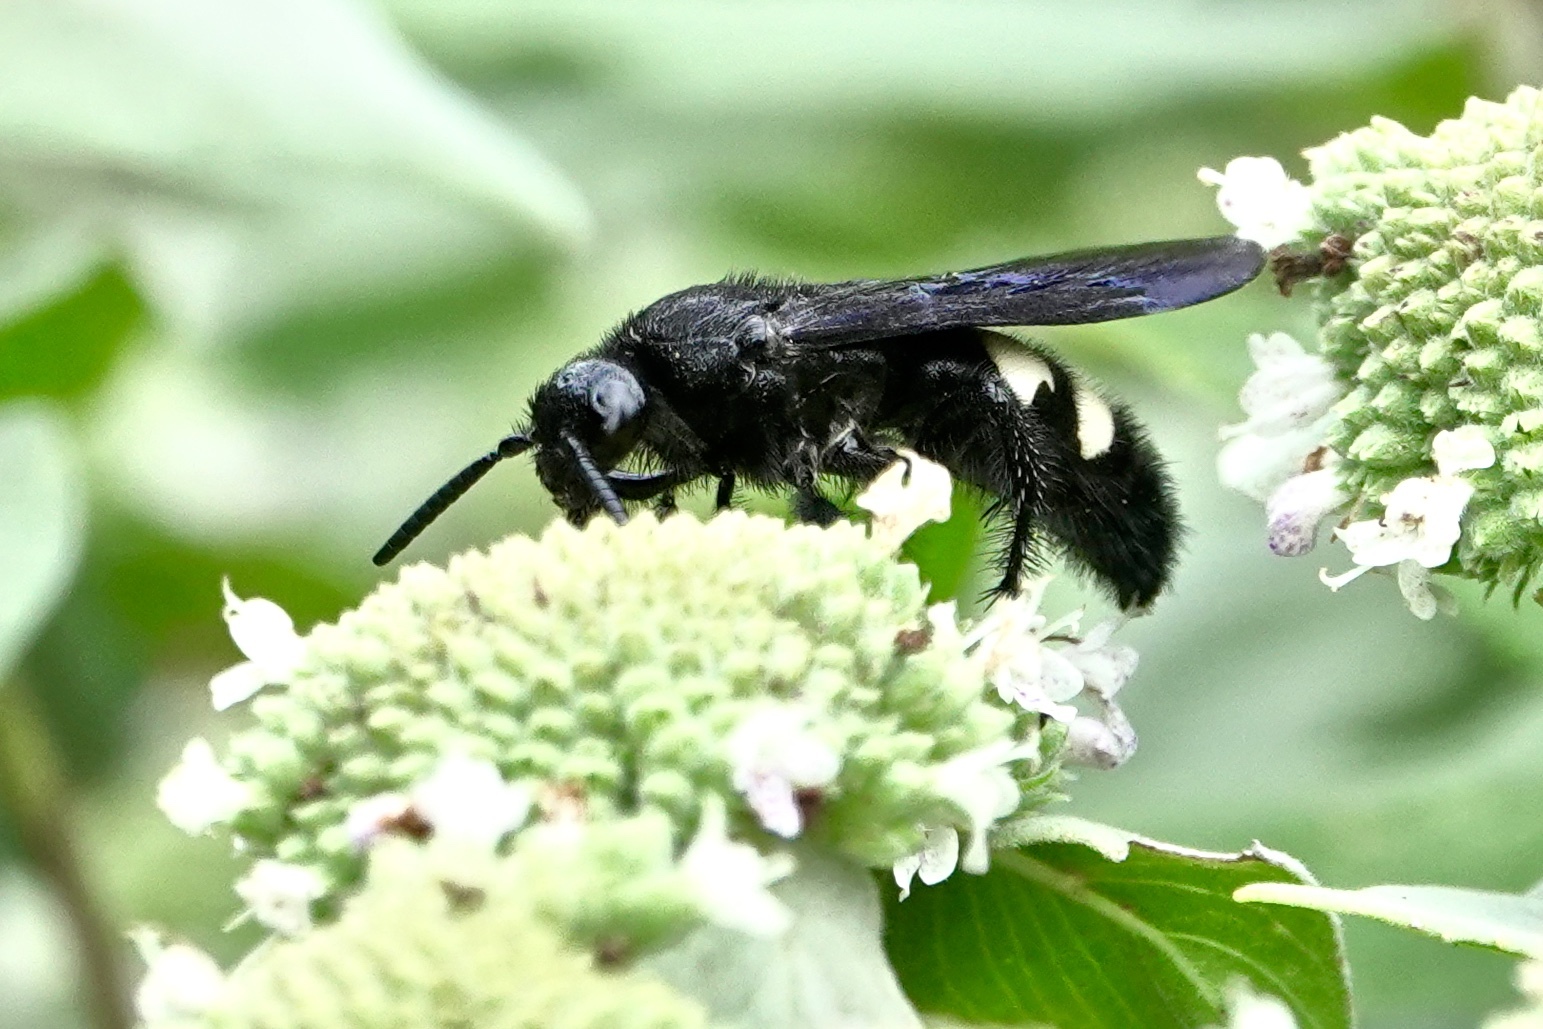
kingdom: Animalia
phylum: Arthropoda
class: Insecta
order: Hymenoptera
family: Scoliidae
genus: Scolia
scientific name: Scolia bicincta
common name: Double-banded scoliid wasp
